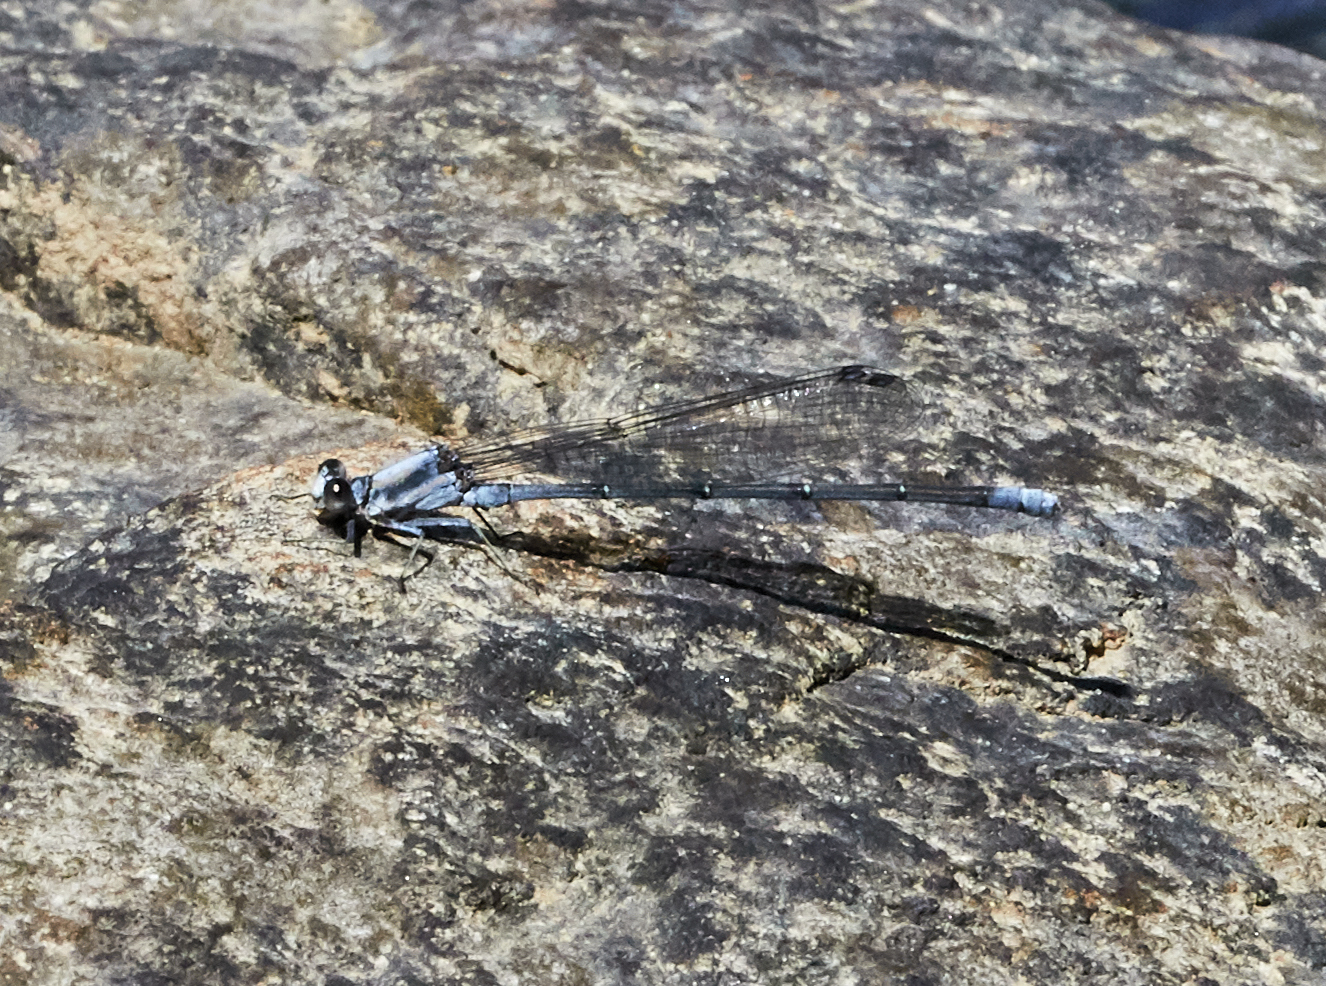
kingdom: Animalia
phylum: Arthropoda
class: Insecta
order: Odonata
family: Coenagrionidae
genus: Argia
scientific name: Argia moesta
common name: Powdered dancer
